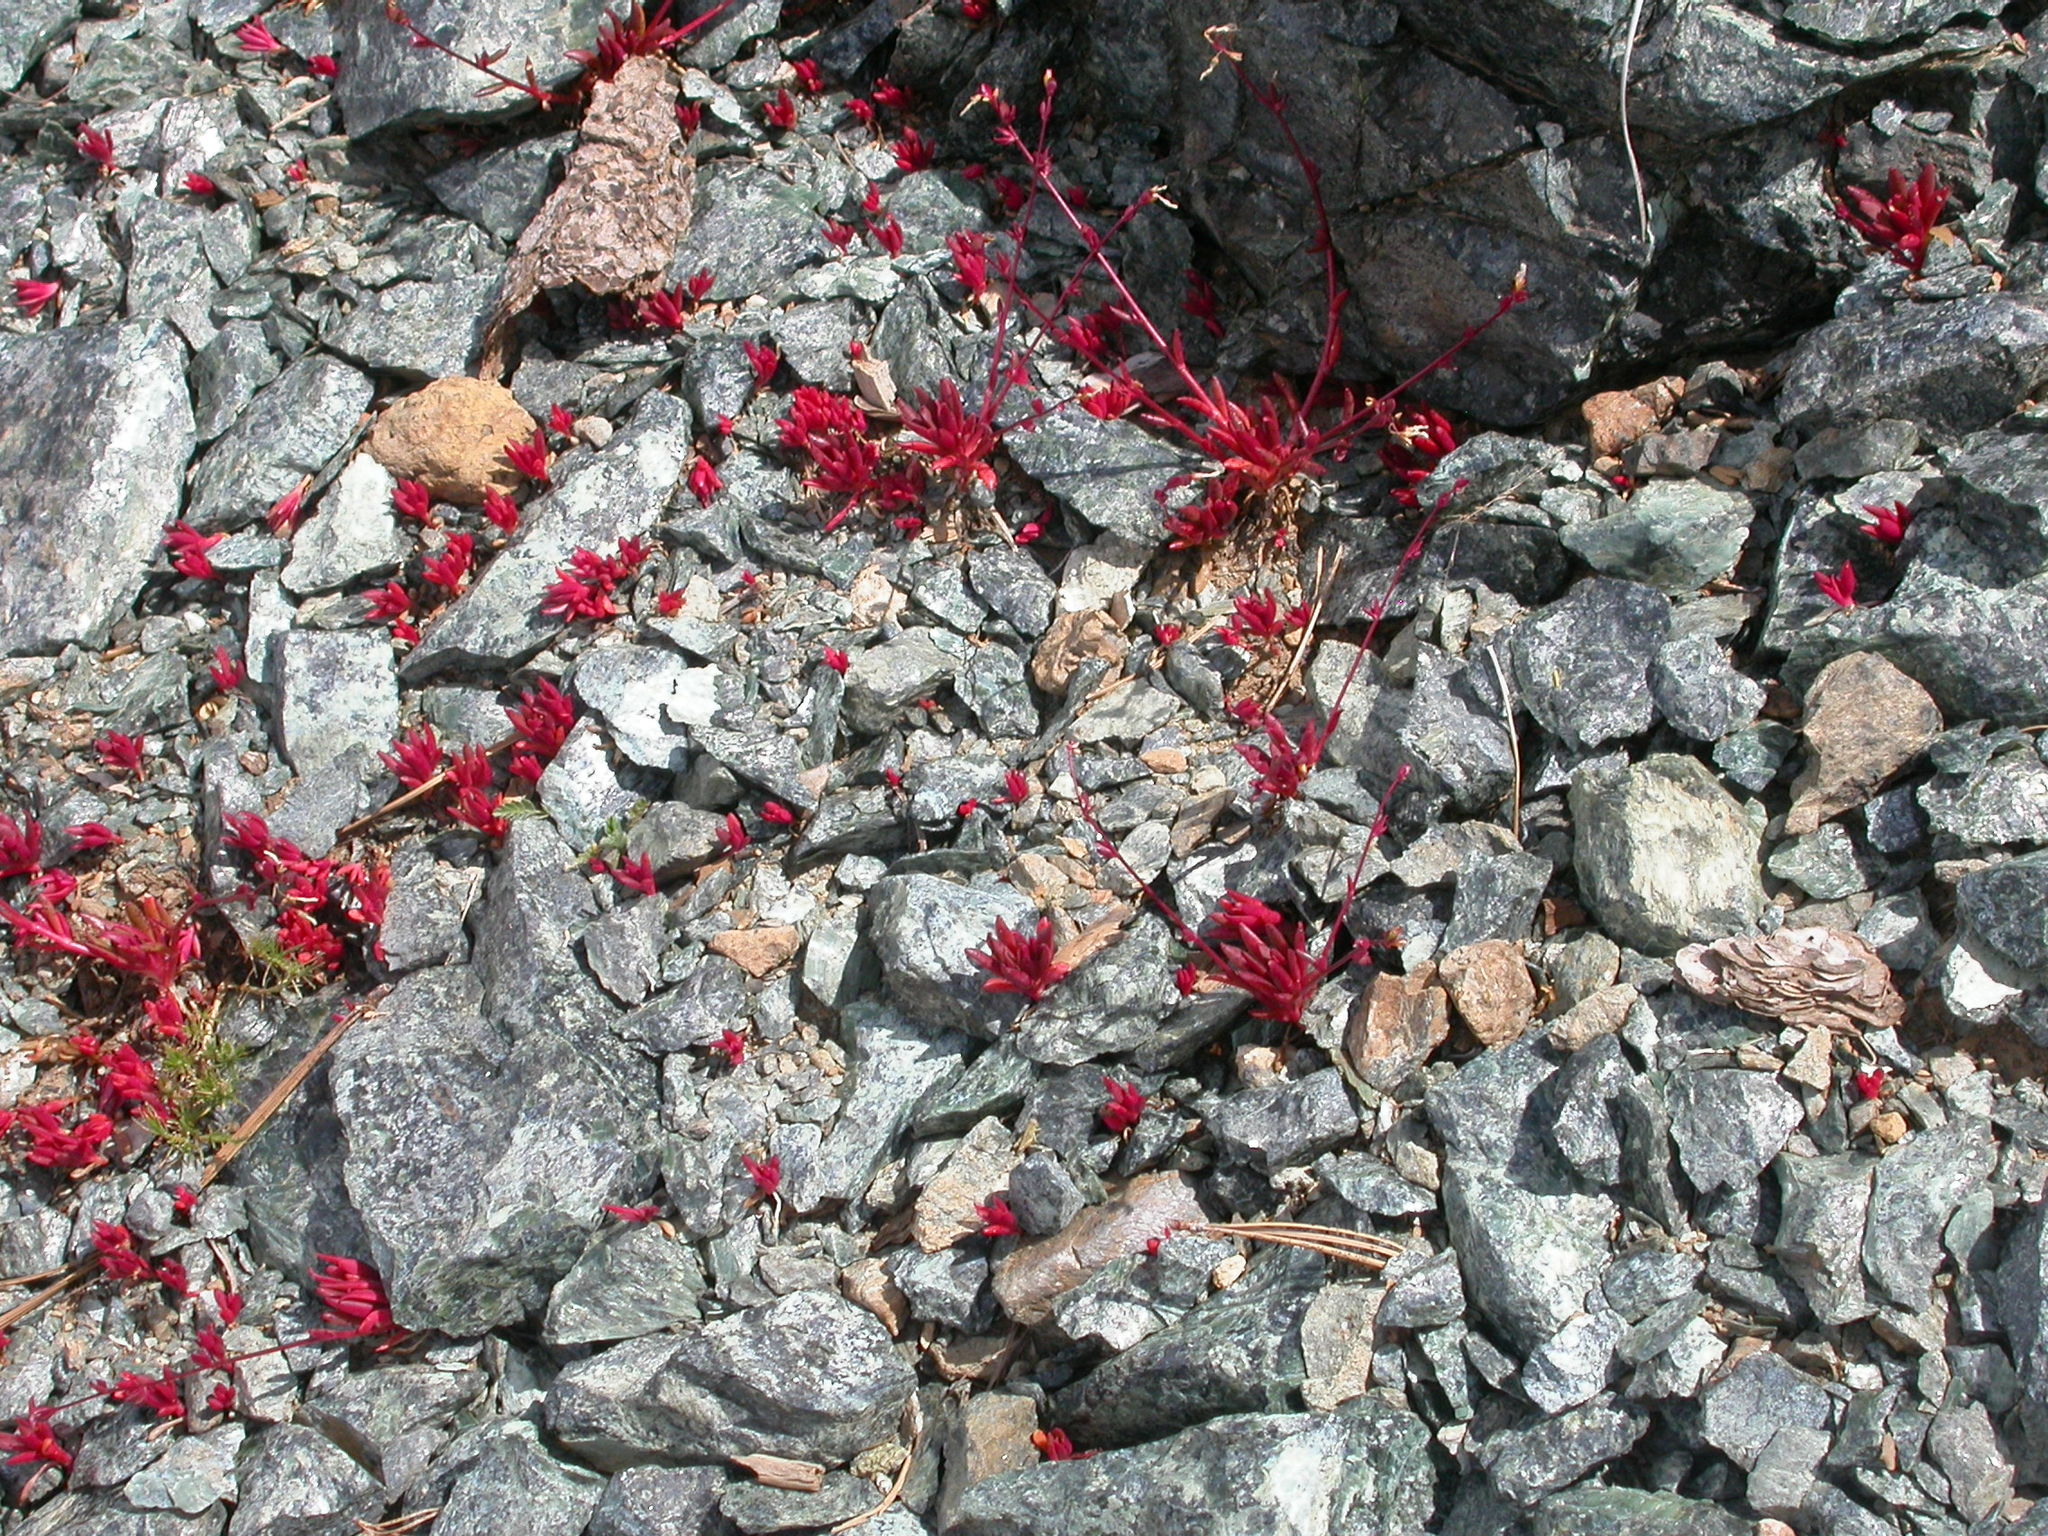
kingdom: Plantae
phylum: Tracheophyta
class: Magnoliopsida
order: Caryophyllales
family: Montiaceae
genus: Montia
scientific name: Montia parvifolia
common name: Small-leaved blinks
